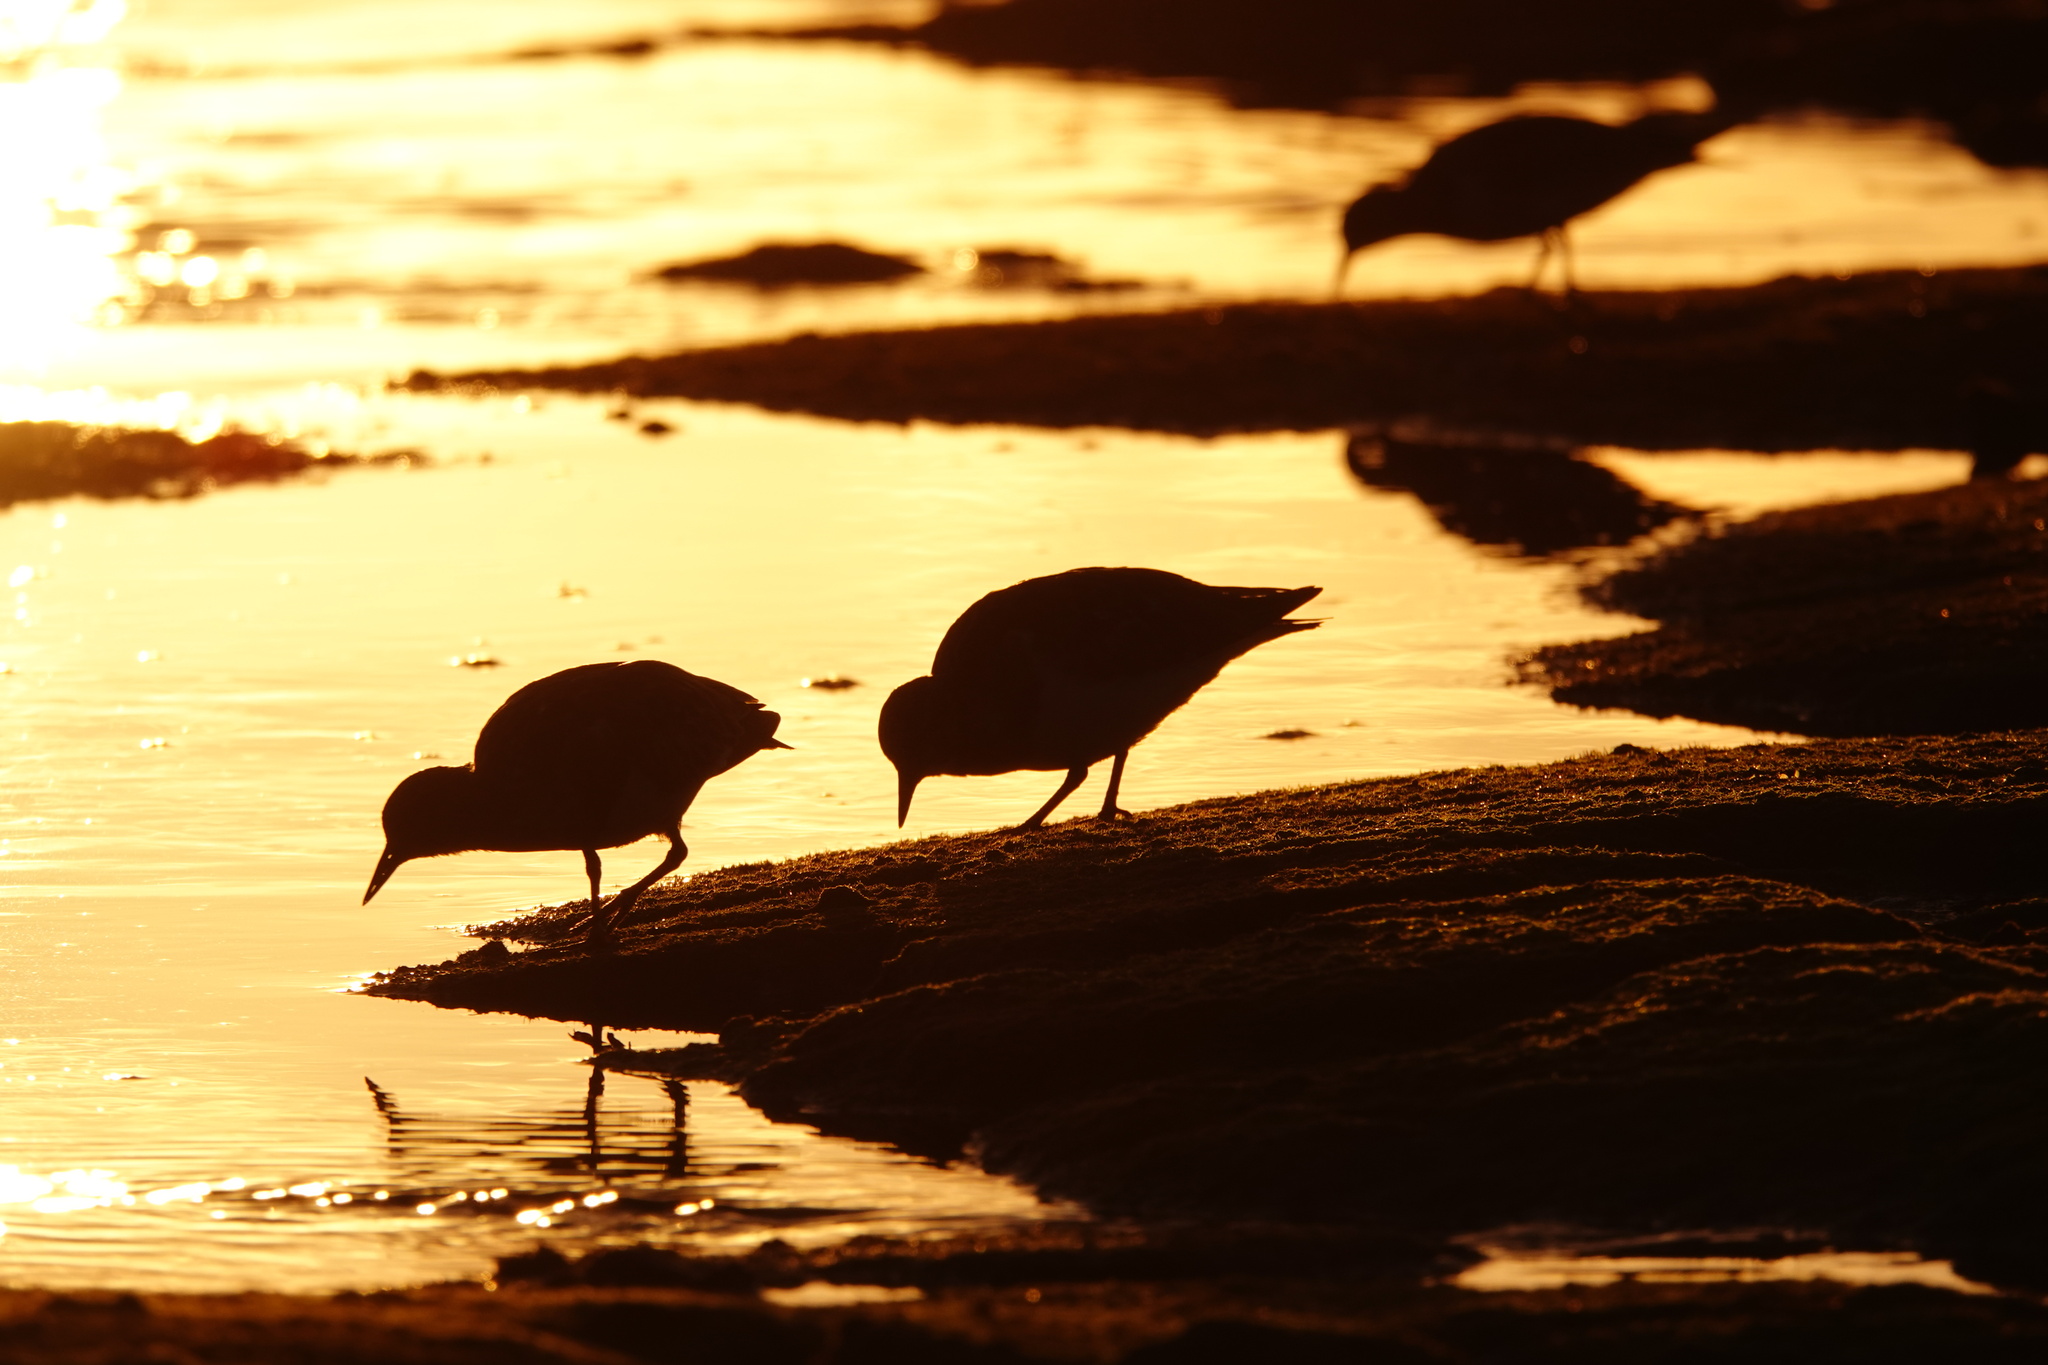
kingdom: Animalia
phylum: Chordata
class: Aves
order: Charadriiformes
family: Scolopacidae
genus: Arenaria
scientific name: Arenaria interpres
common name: Ruddy turnstone
